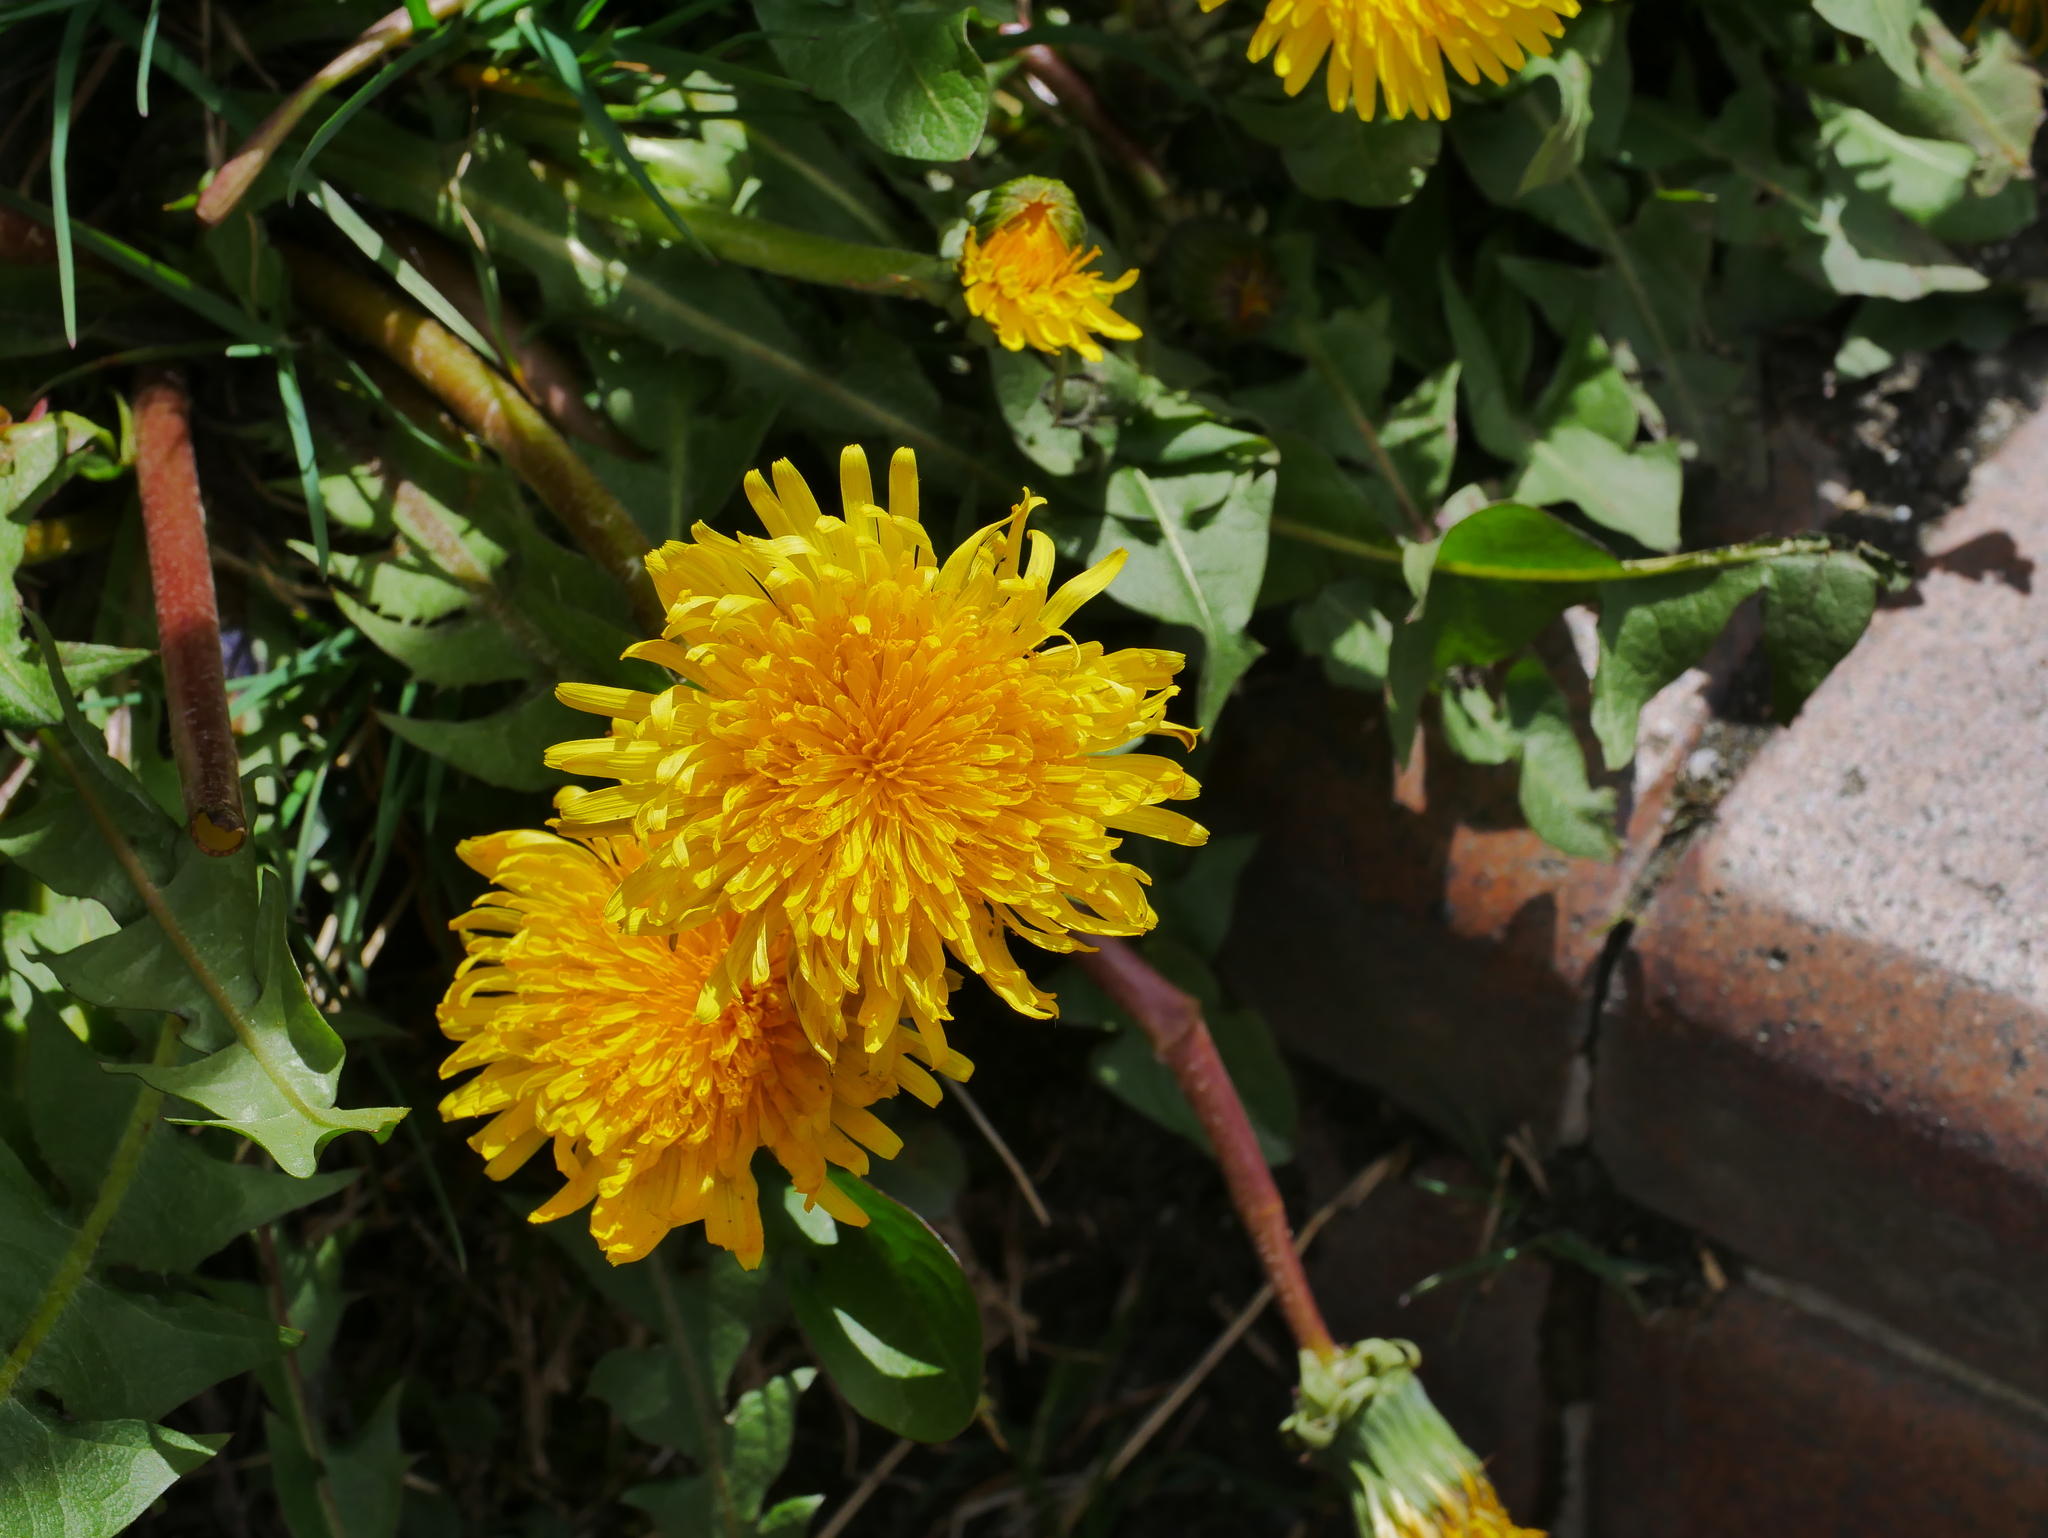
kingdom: Plantae
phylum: Tracheophyta
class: Magnoliopsida
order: Asterales
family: Asteraceae
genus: Taraxacum
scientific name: Taraxacum officinale
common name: Common dandelion
